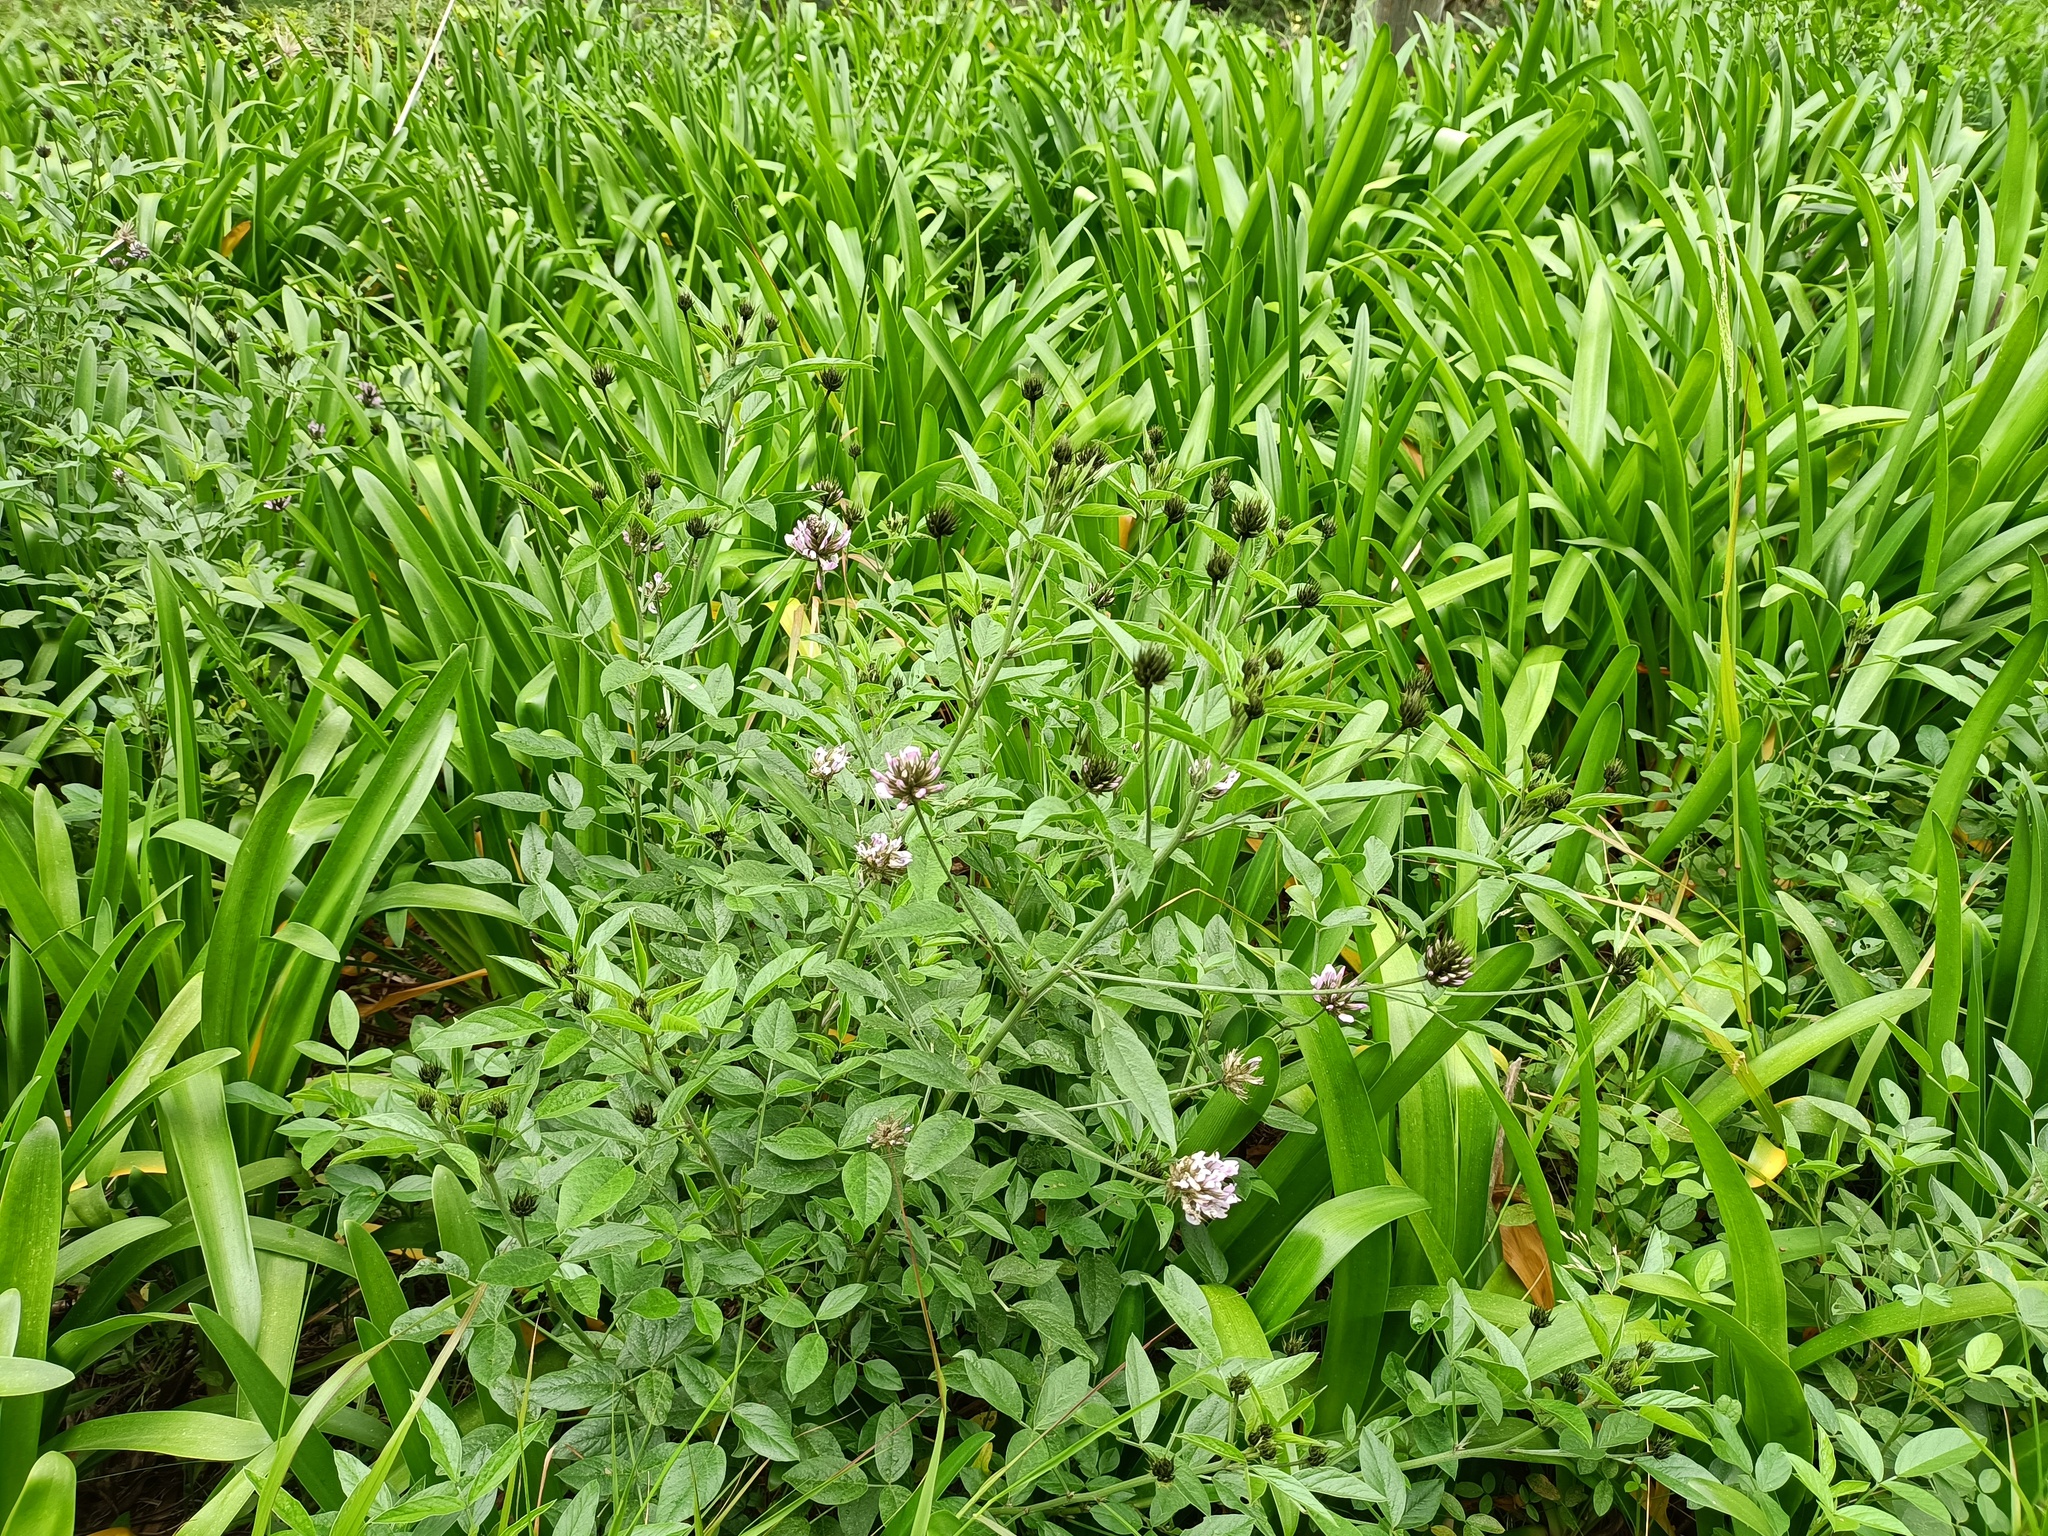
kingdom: Plantae
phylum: Tracheophyta
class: Magnoliopsida
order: Fabales
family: Fabaceae
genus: Bituminaria
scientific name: Bituminaria bituminosa
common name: Arabian pea
